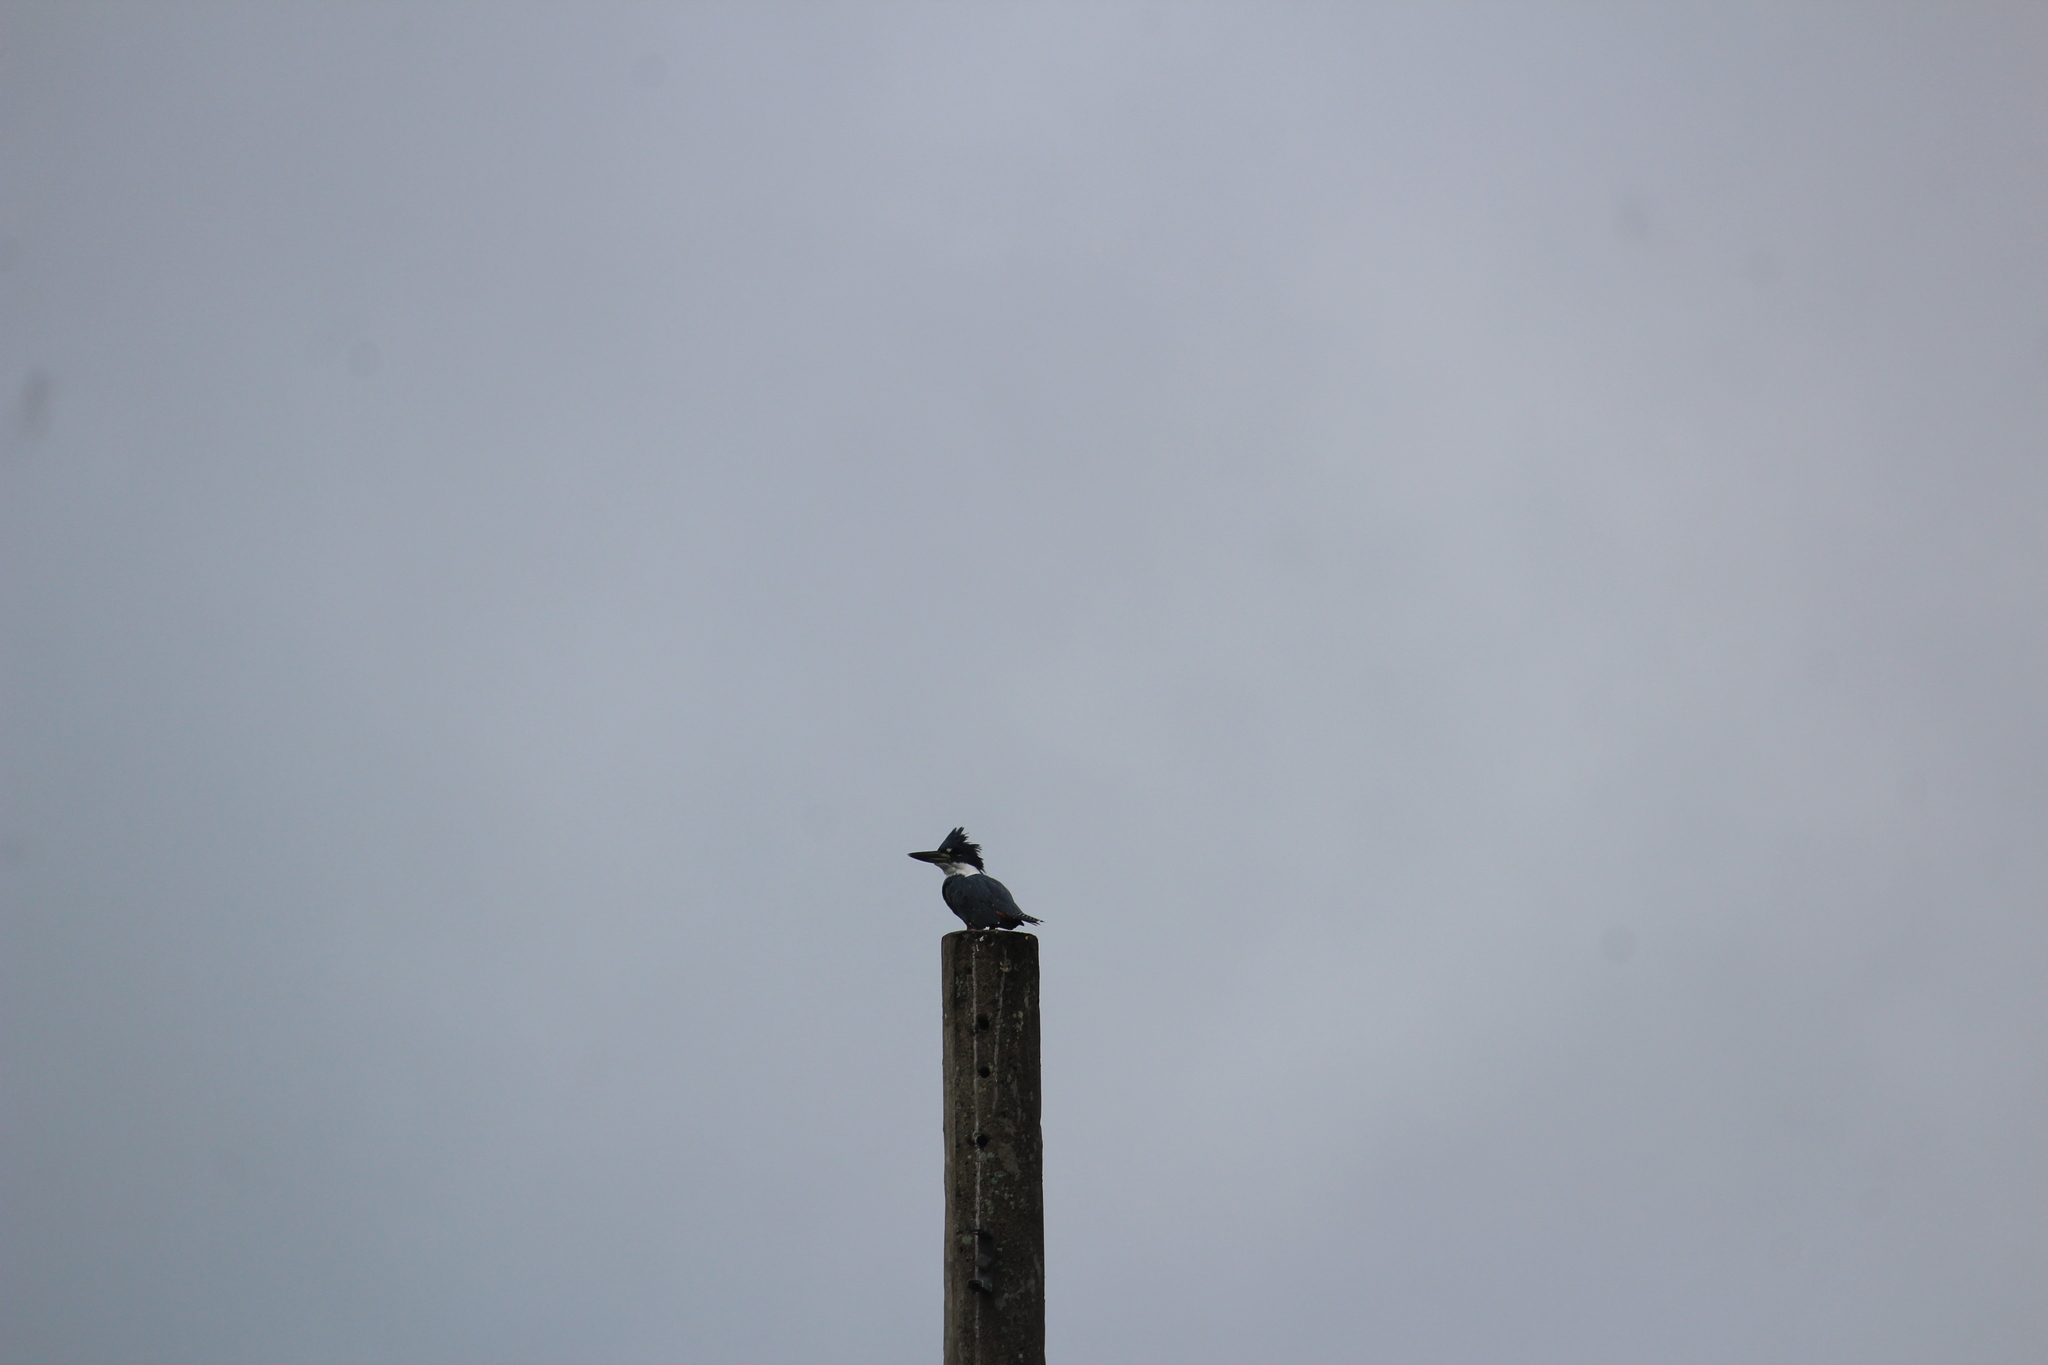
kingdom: Animalia
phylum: Chordata
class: Aves
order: Coraciiformes
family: Alcedinidae
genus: Megaceryle
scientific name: Megaceryle alcyon
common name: Belted kingfisher
